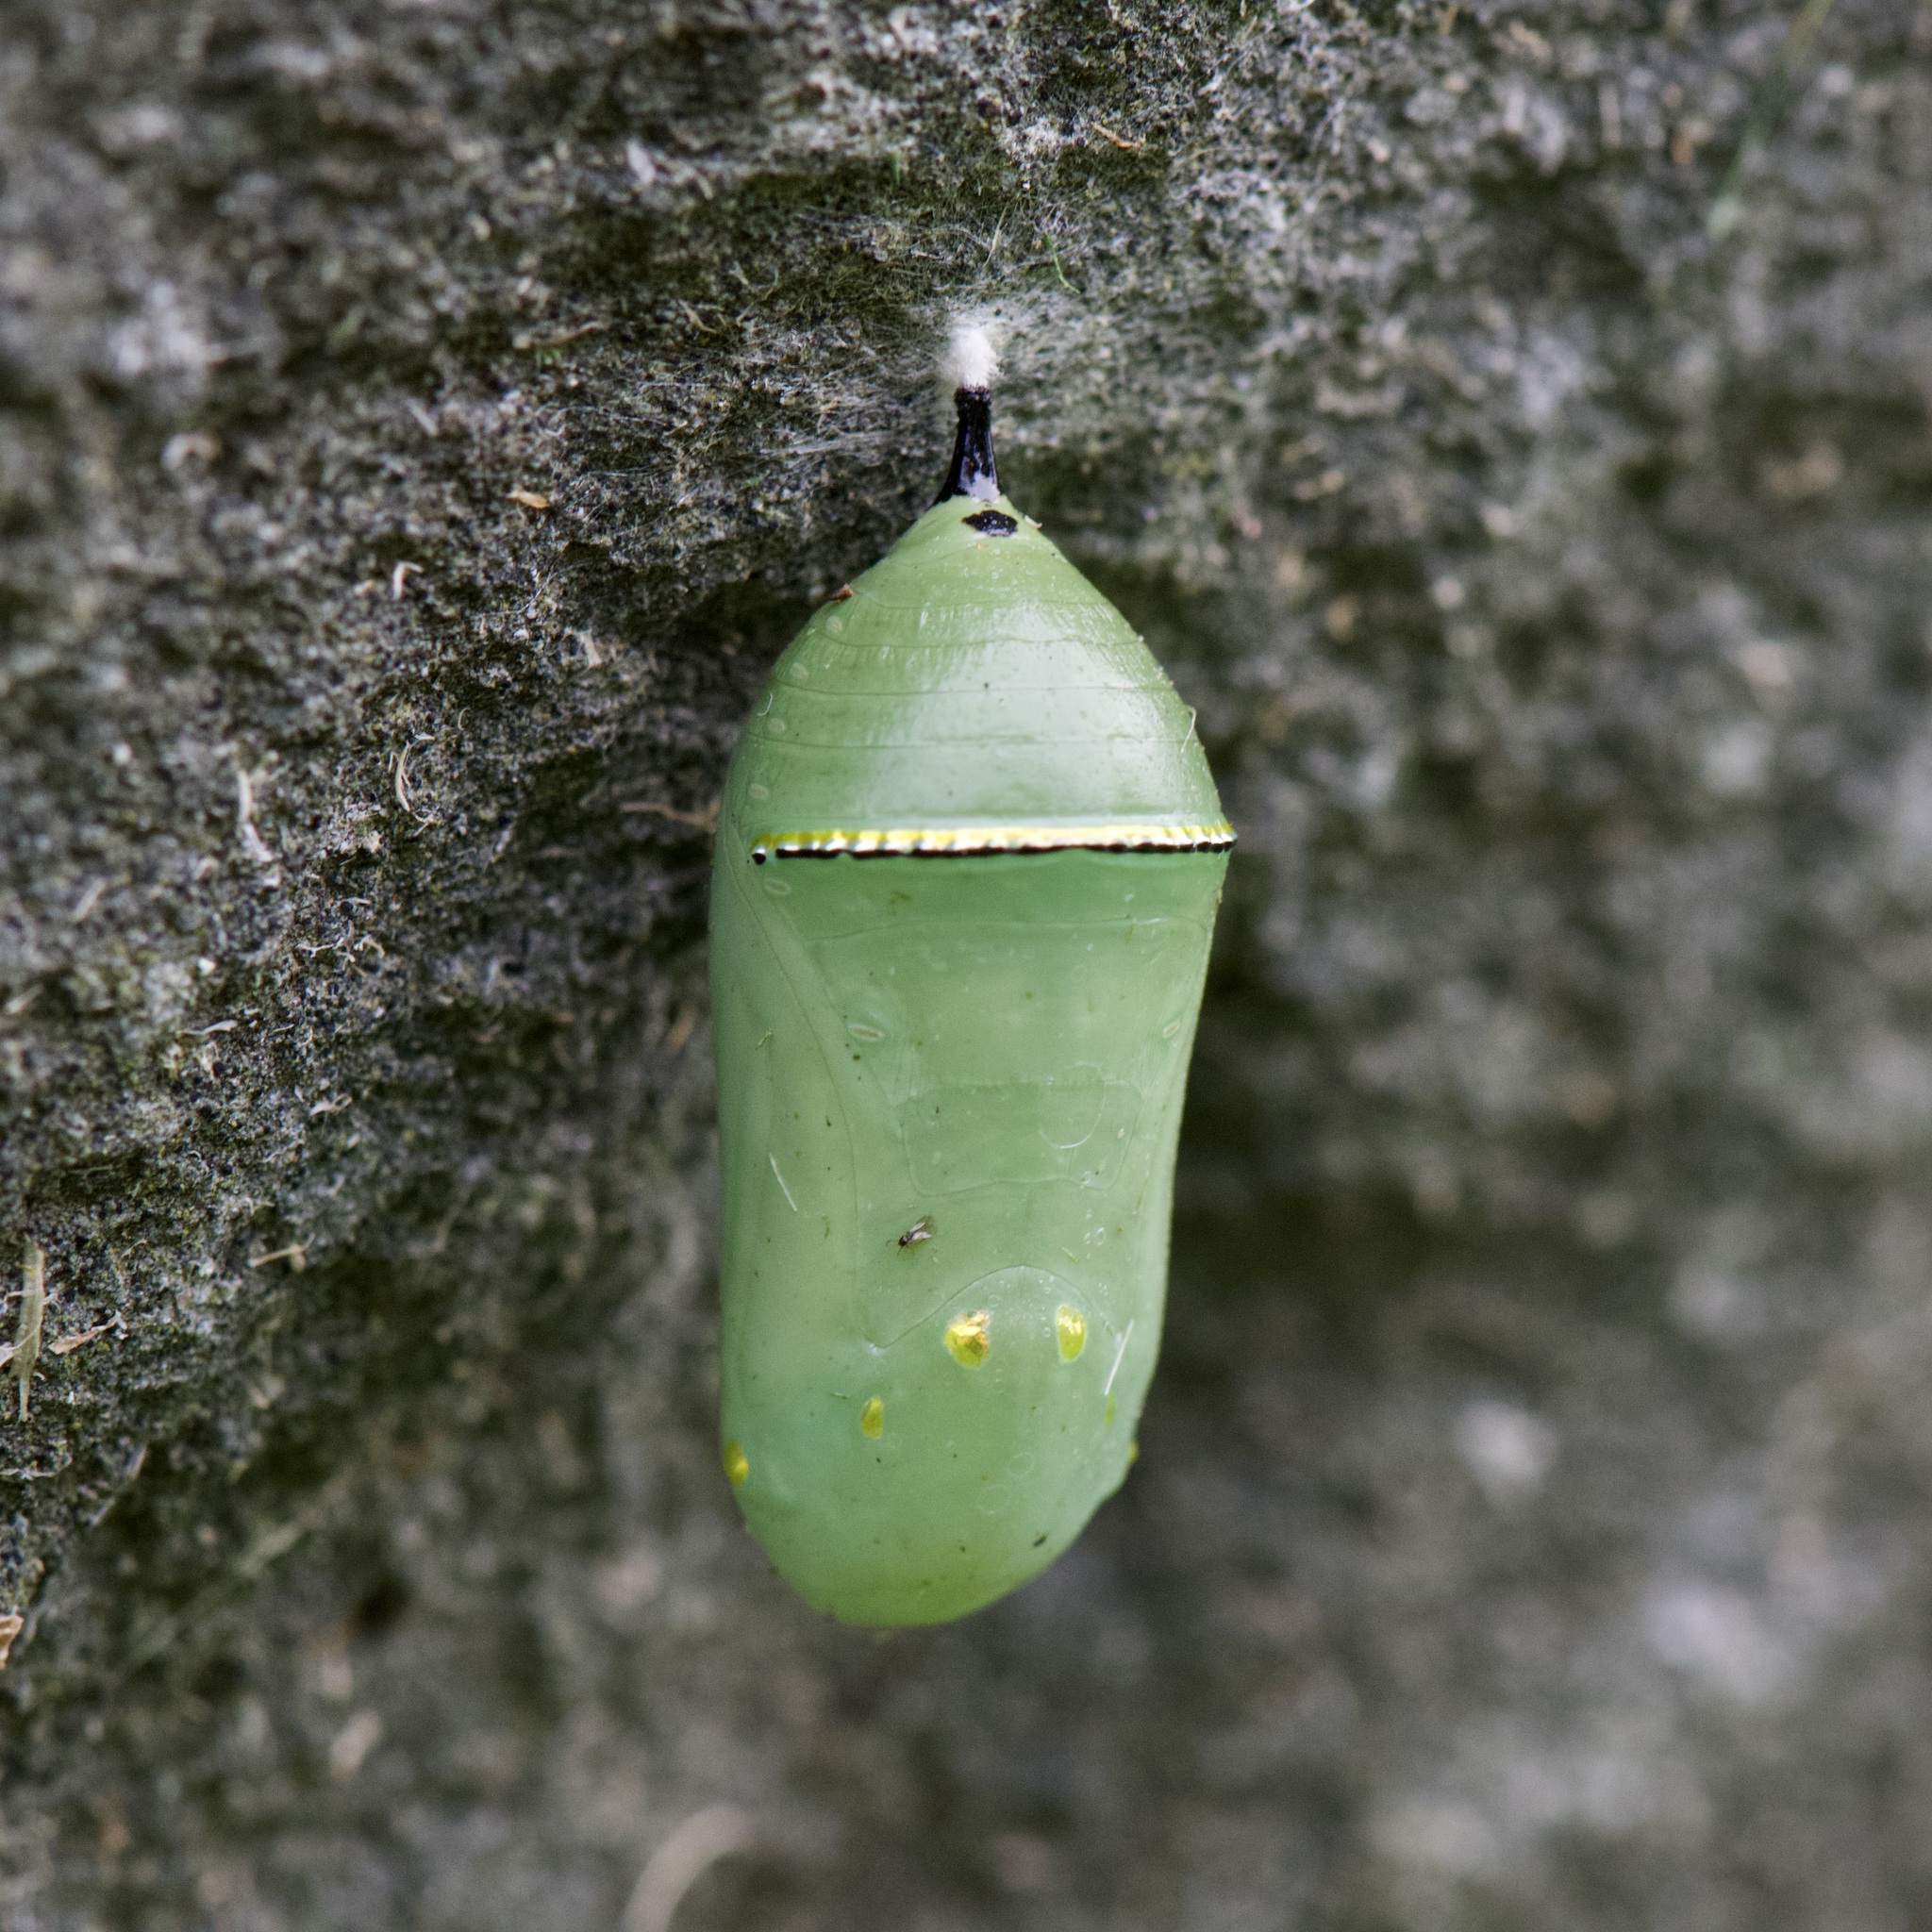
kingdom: Animalia
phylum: Arthropoda
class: Insecta
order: Lepidoptera
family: Nymphalidae
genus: Danaus
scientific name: Danaus plexippus
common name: Monarch
